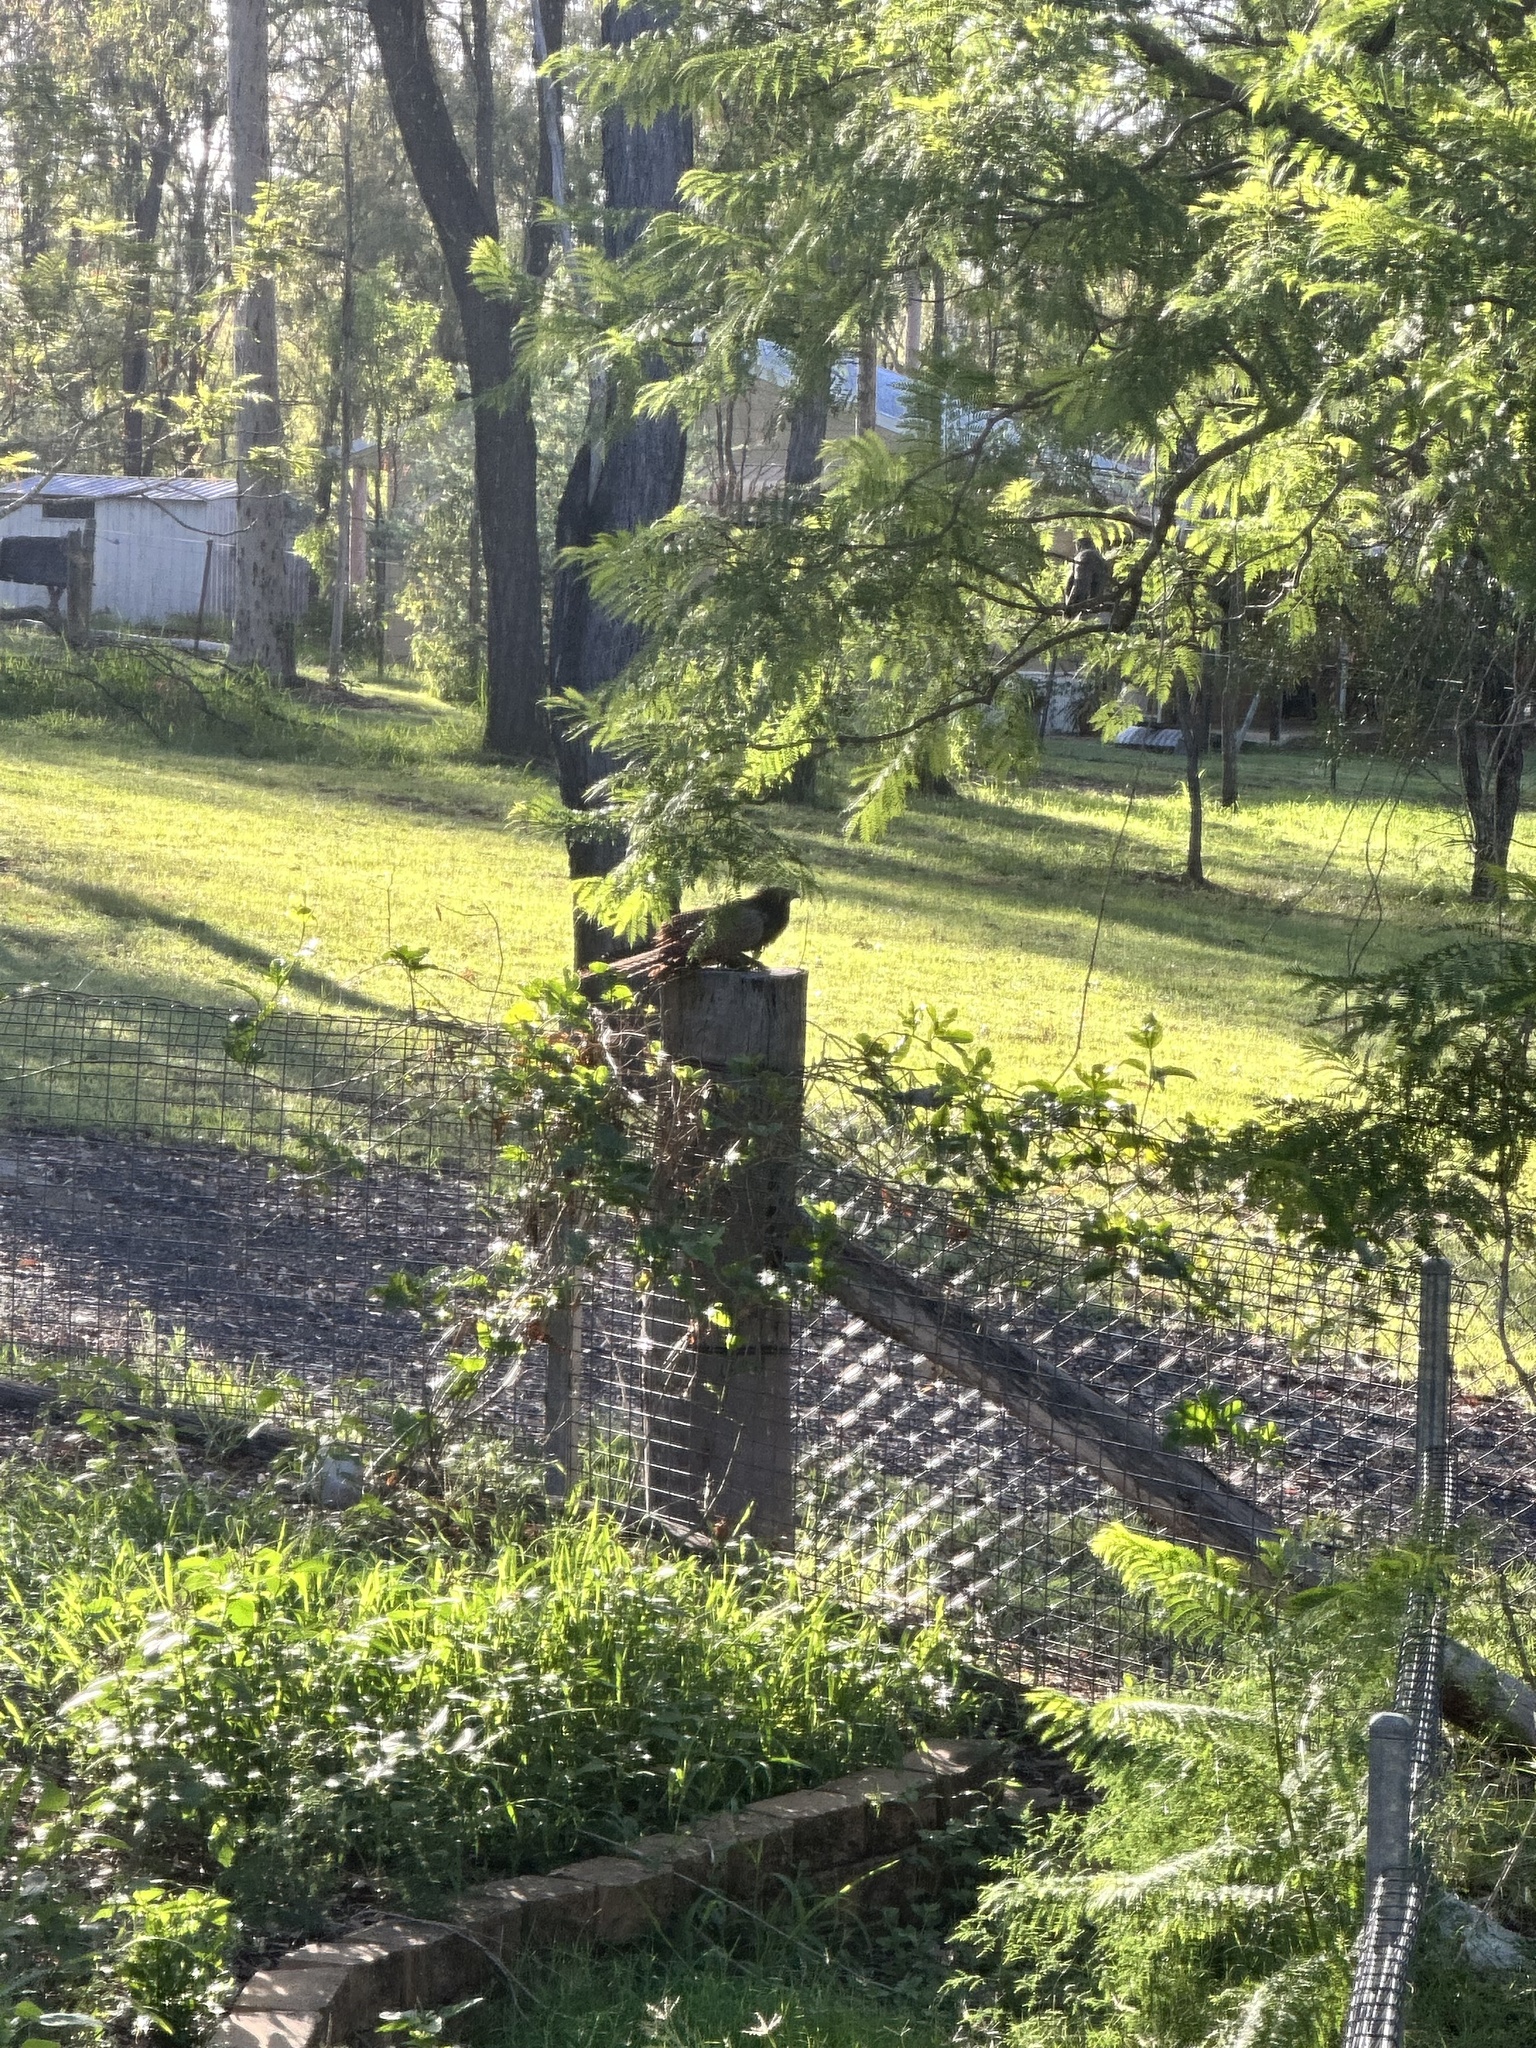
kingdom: Animalia
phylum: Chordata
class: Aves
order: Cuculiformes
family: Cuculidae
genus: Centropus
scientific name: Centropus phasianinus
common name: Pheasant coucal
